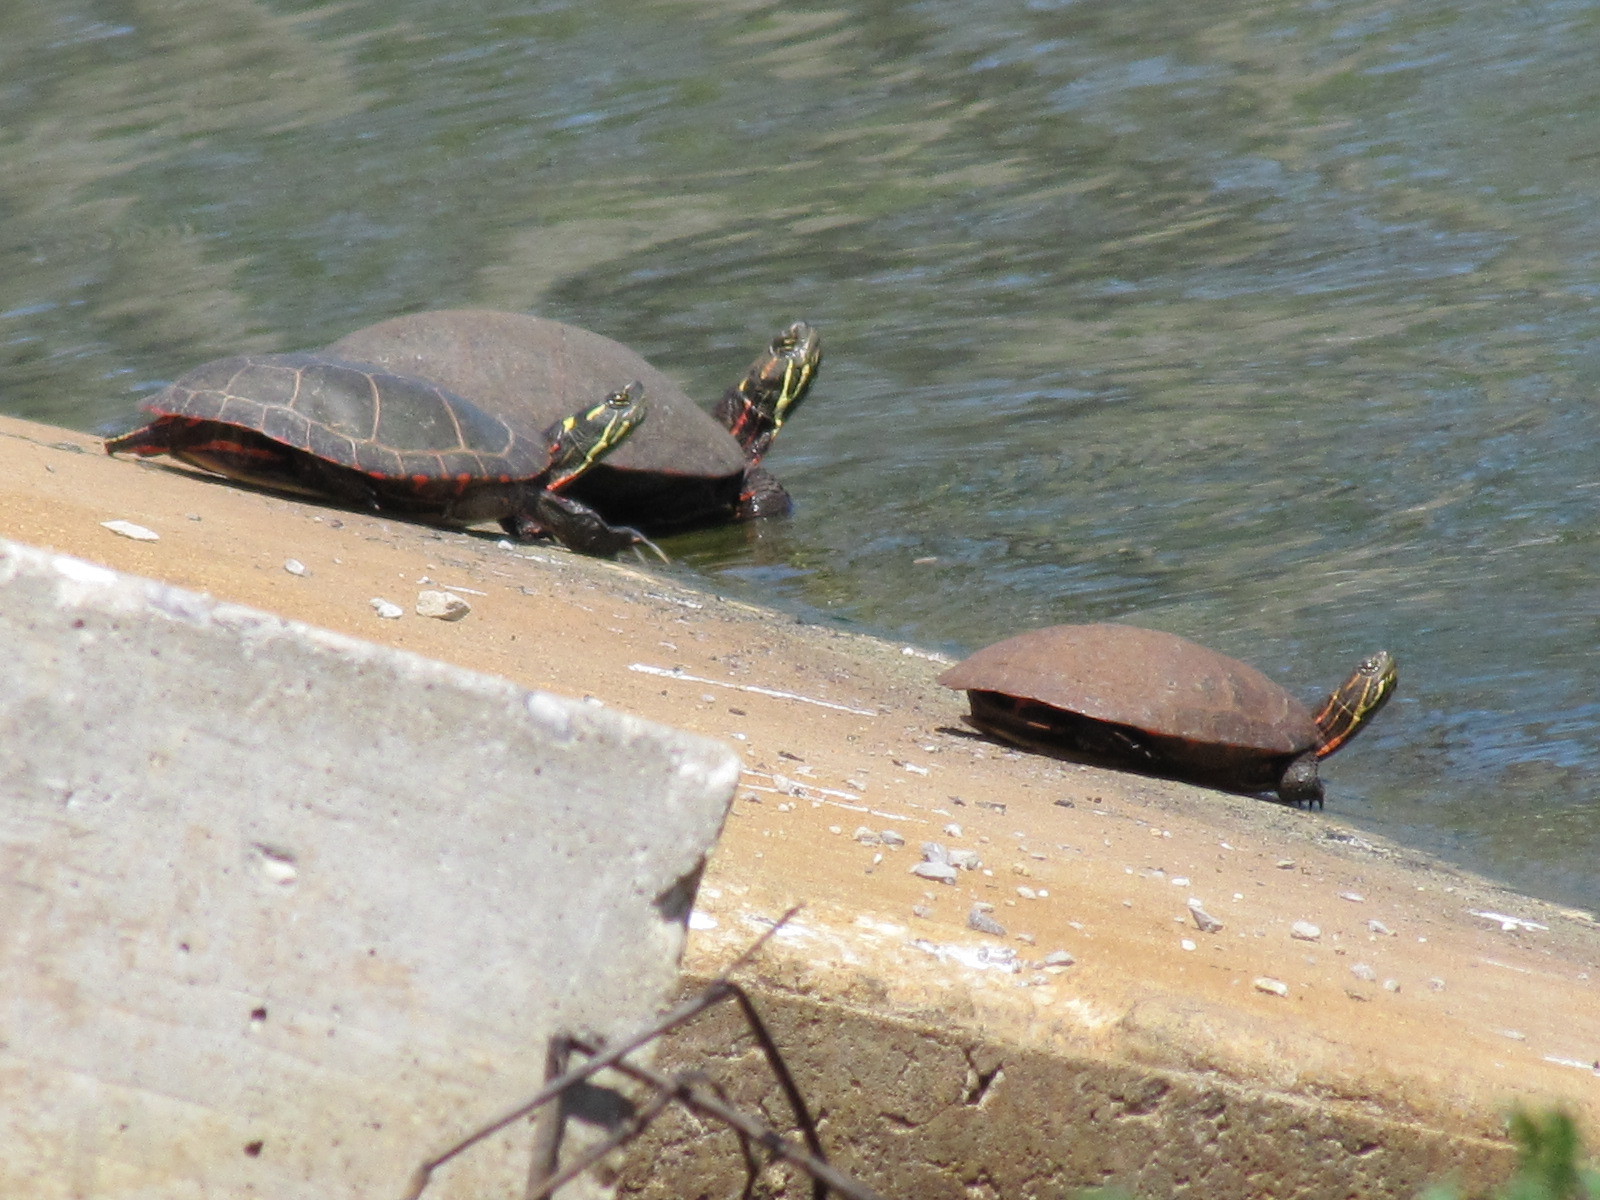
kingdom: Animalia
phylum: Chordata
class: Testudines
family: Emydidae
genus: Chrysemys
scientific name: Chrysemys picta
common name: Painted turtle
